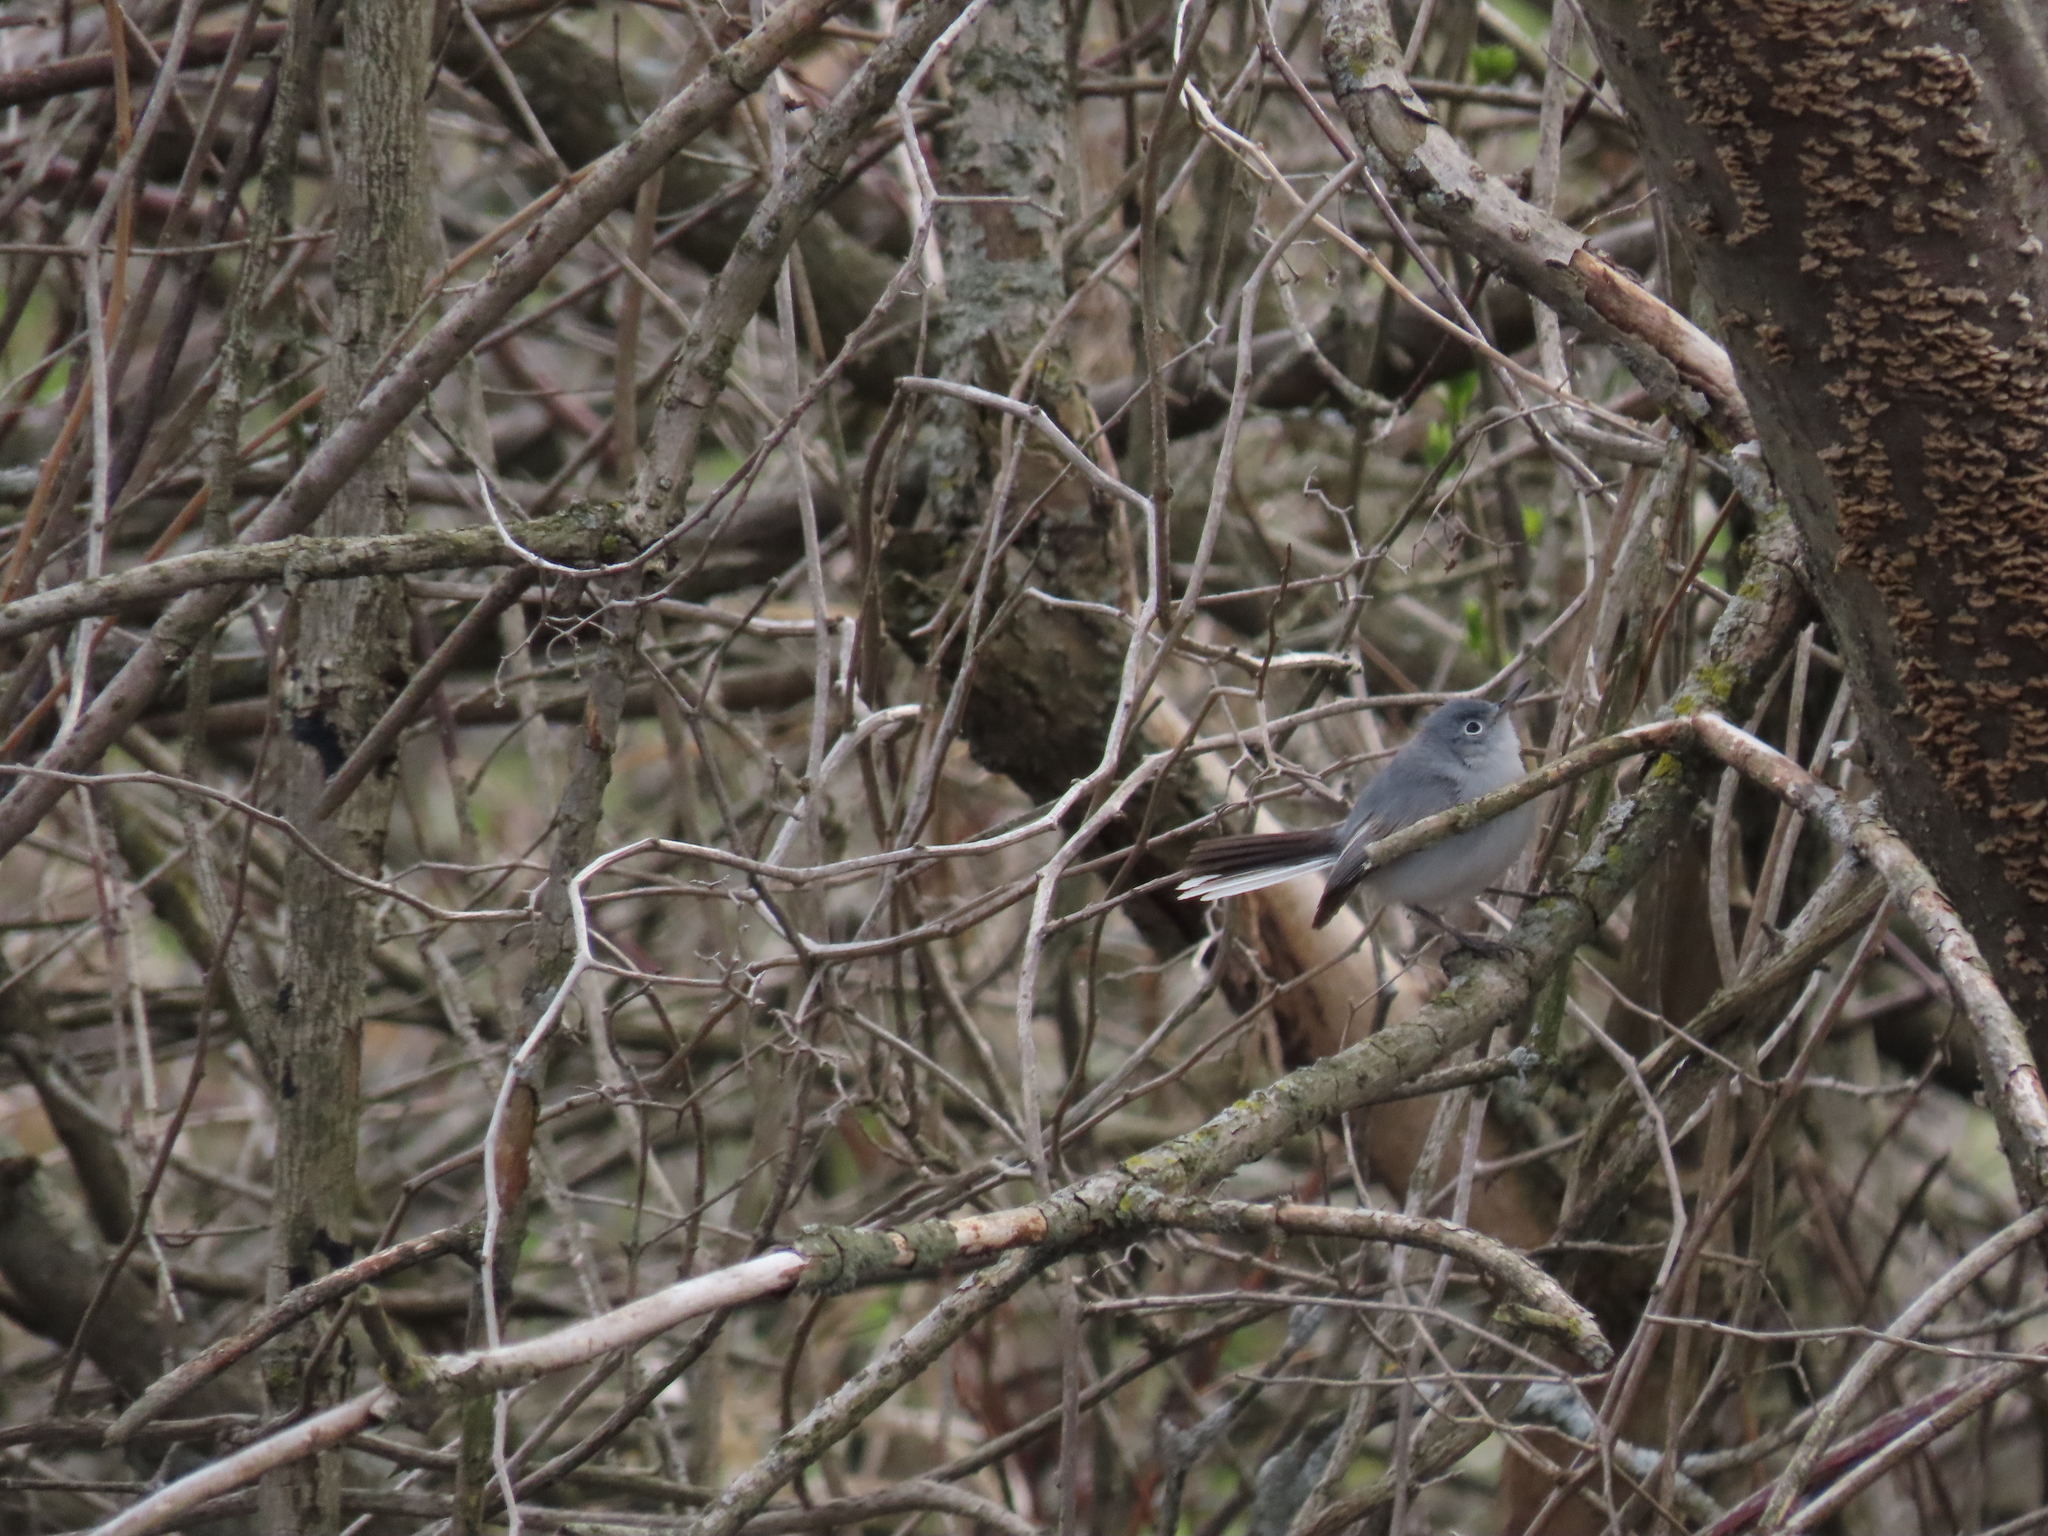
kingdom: Animalia
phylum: Chordata
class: Aves
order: Passeriformes
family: Polioptilidae
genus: Polioptila
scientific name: Polioptila caerulea
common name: Blue-gray gnatcatcher
